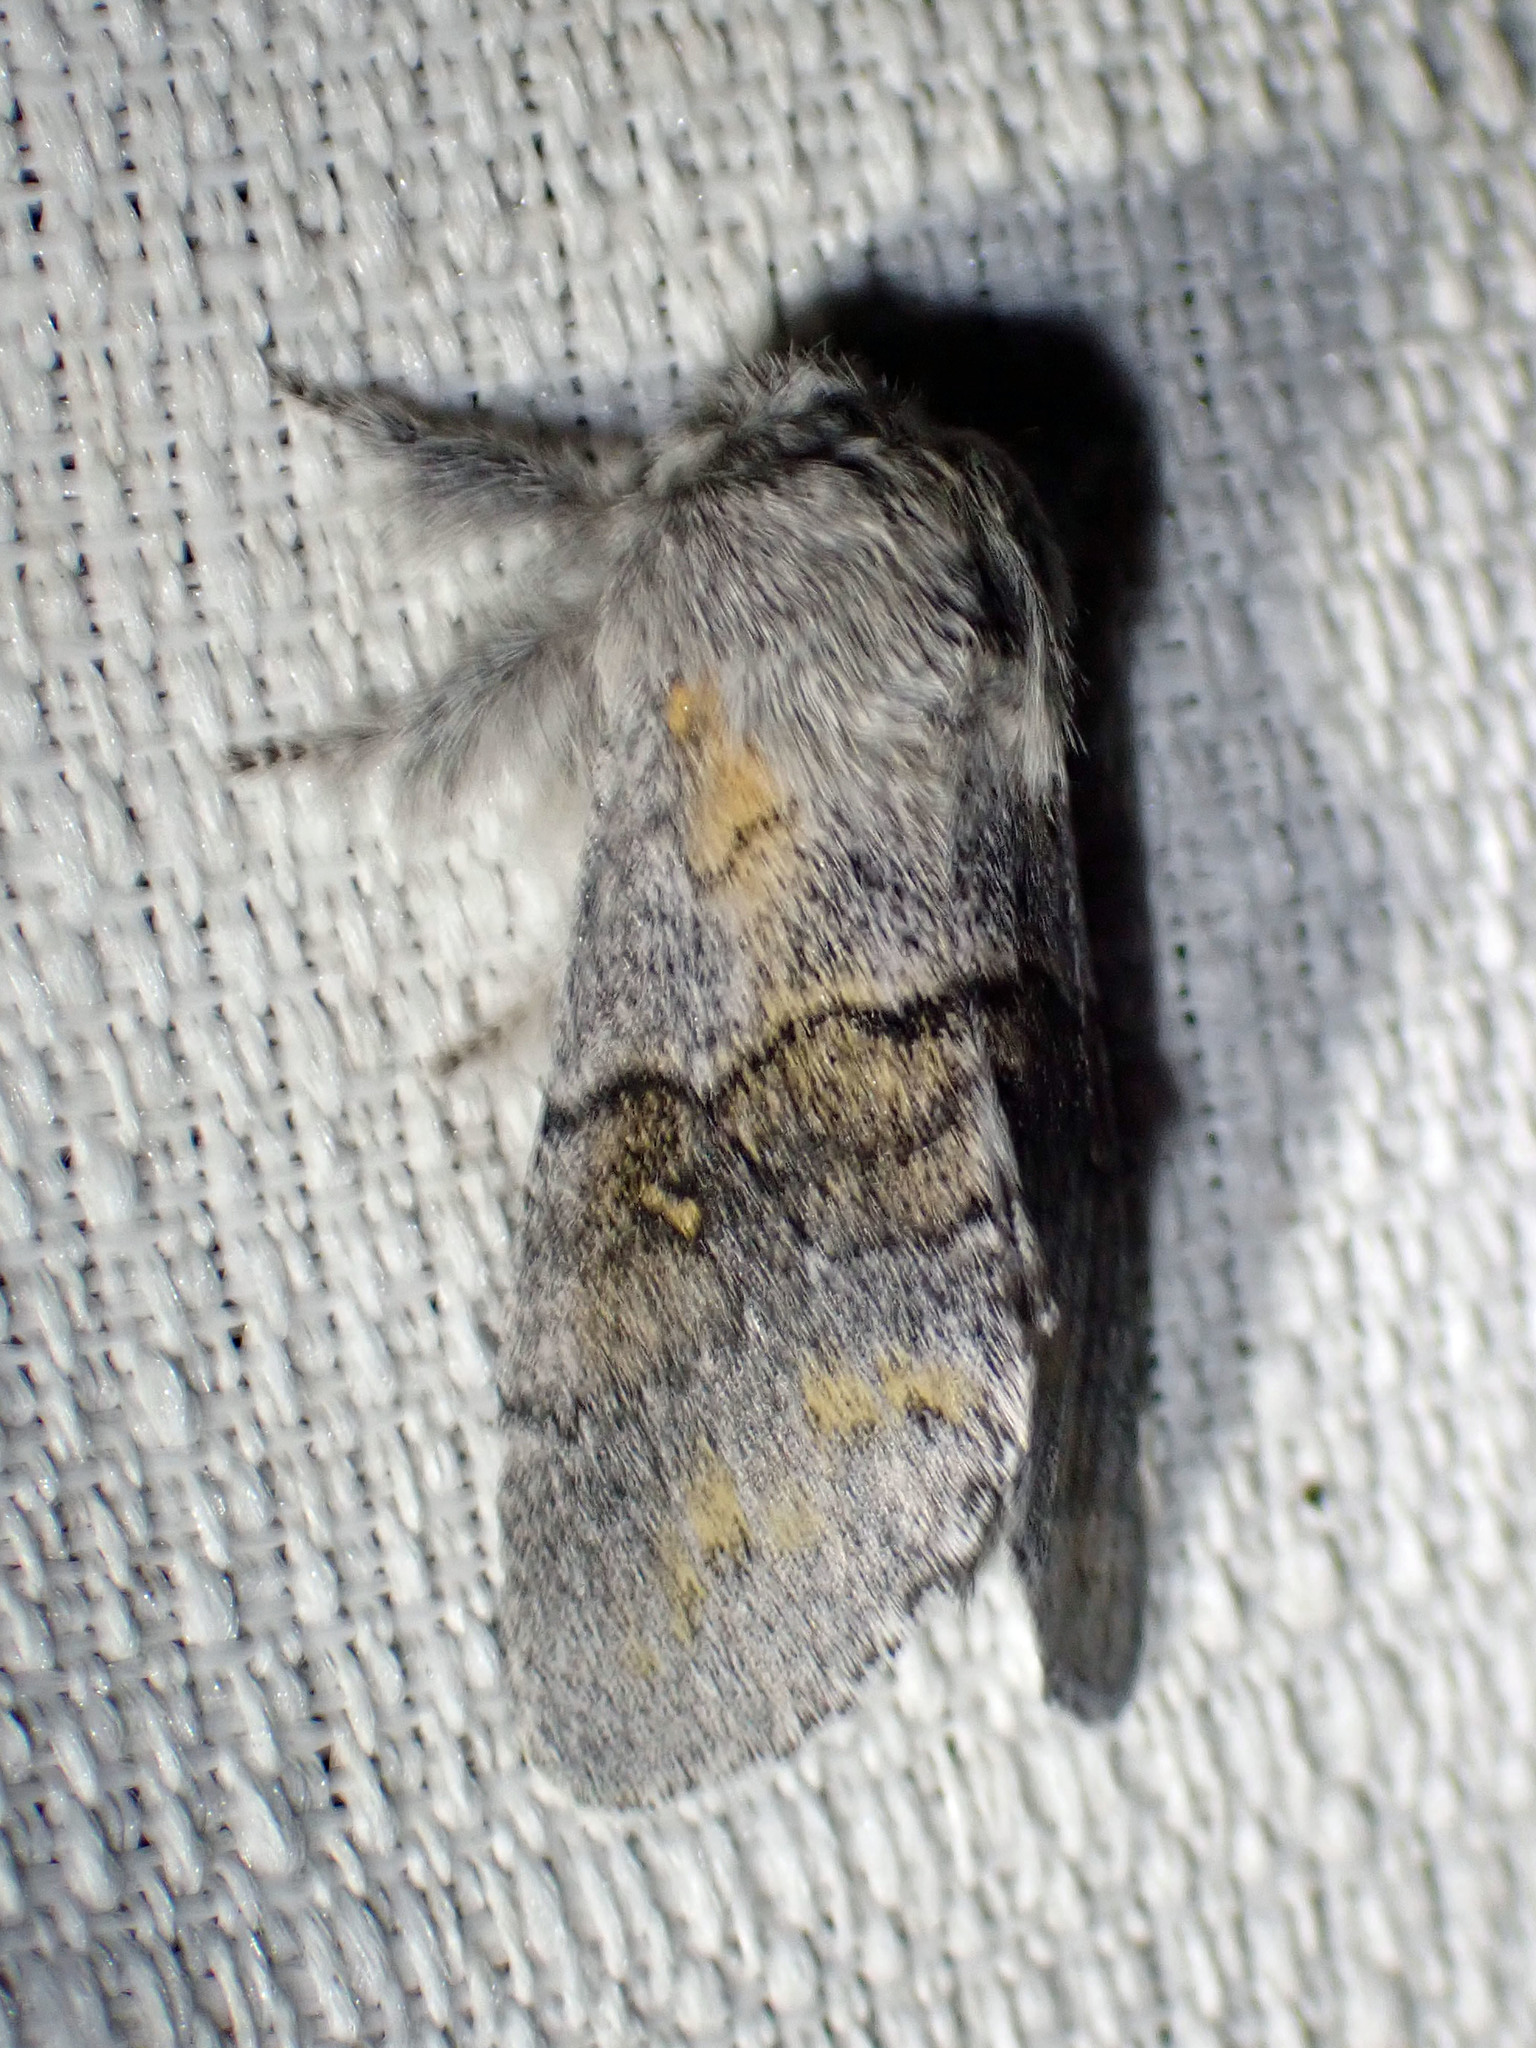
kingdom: Animalia
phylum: Arthropoda
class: Insecta
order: Lepidoptera
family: Notodontidae
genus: Gluphisia
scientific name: Gluphisia lintneri
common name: Lintner's gluphisia moth
